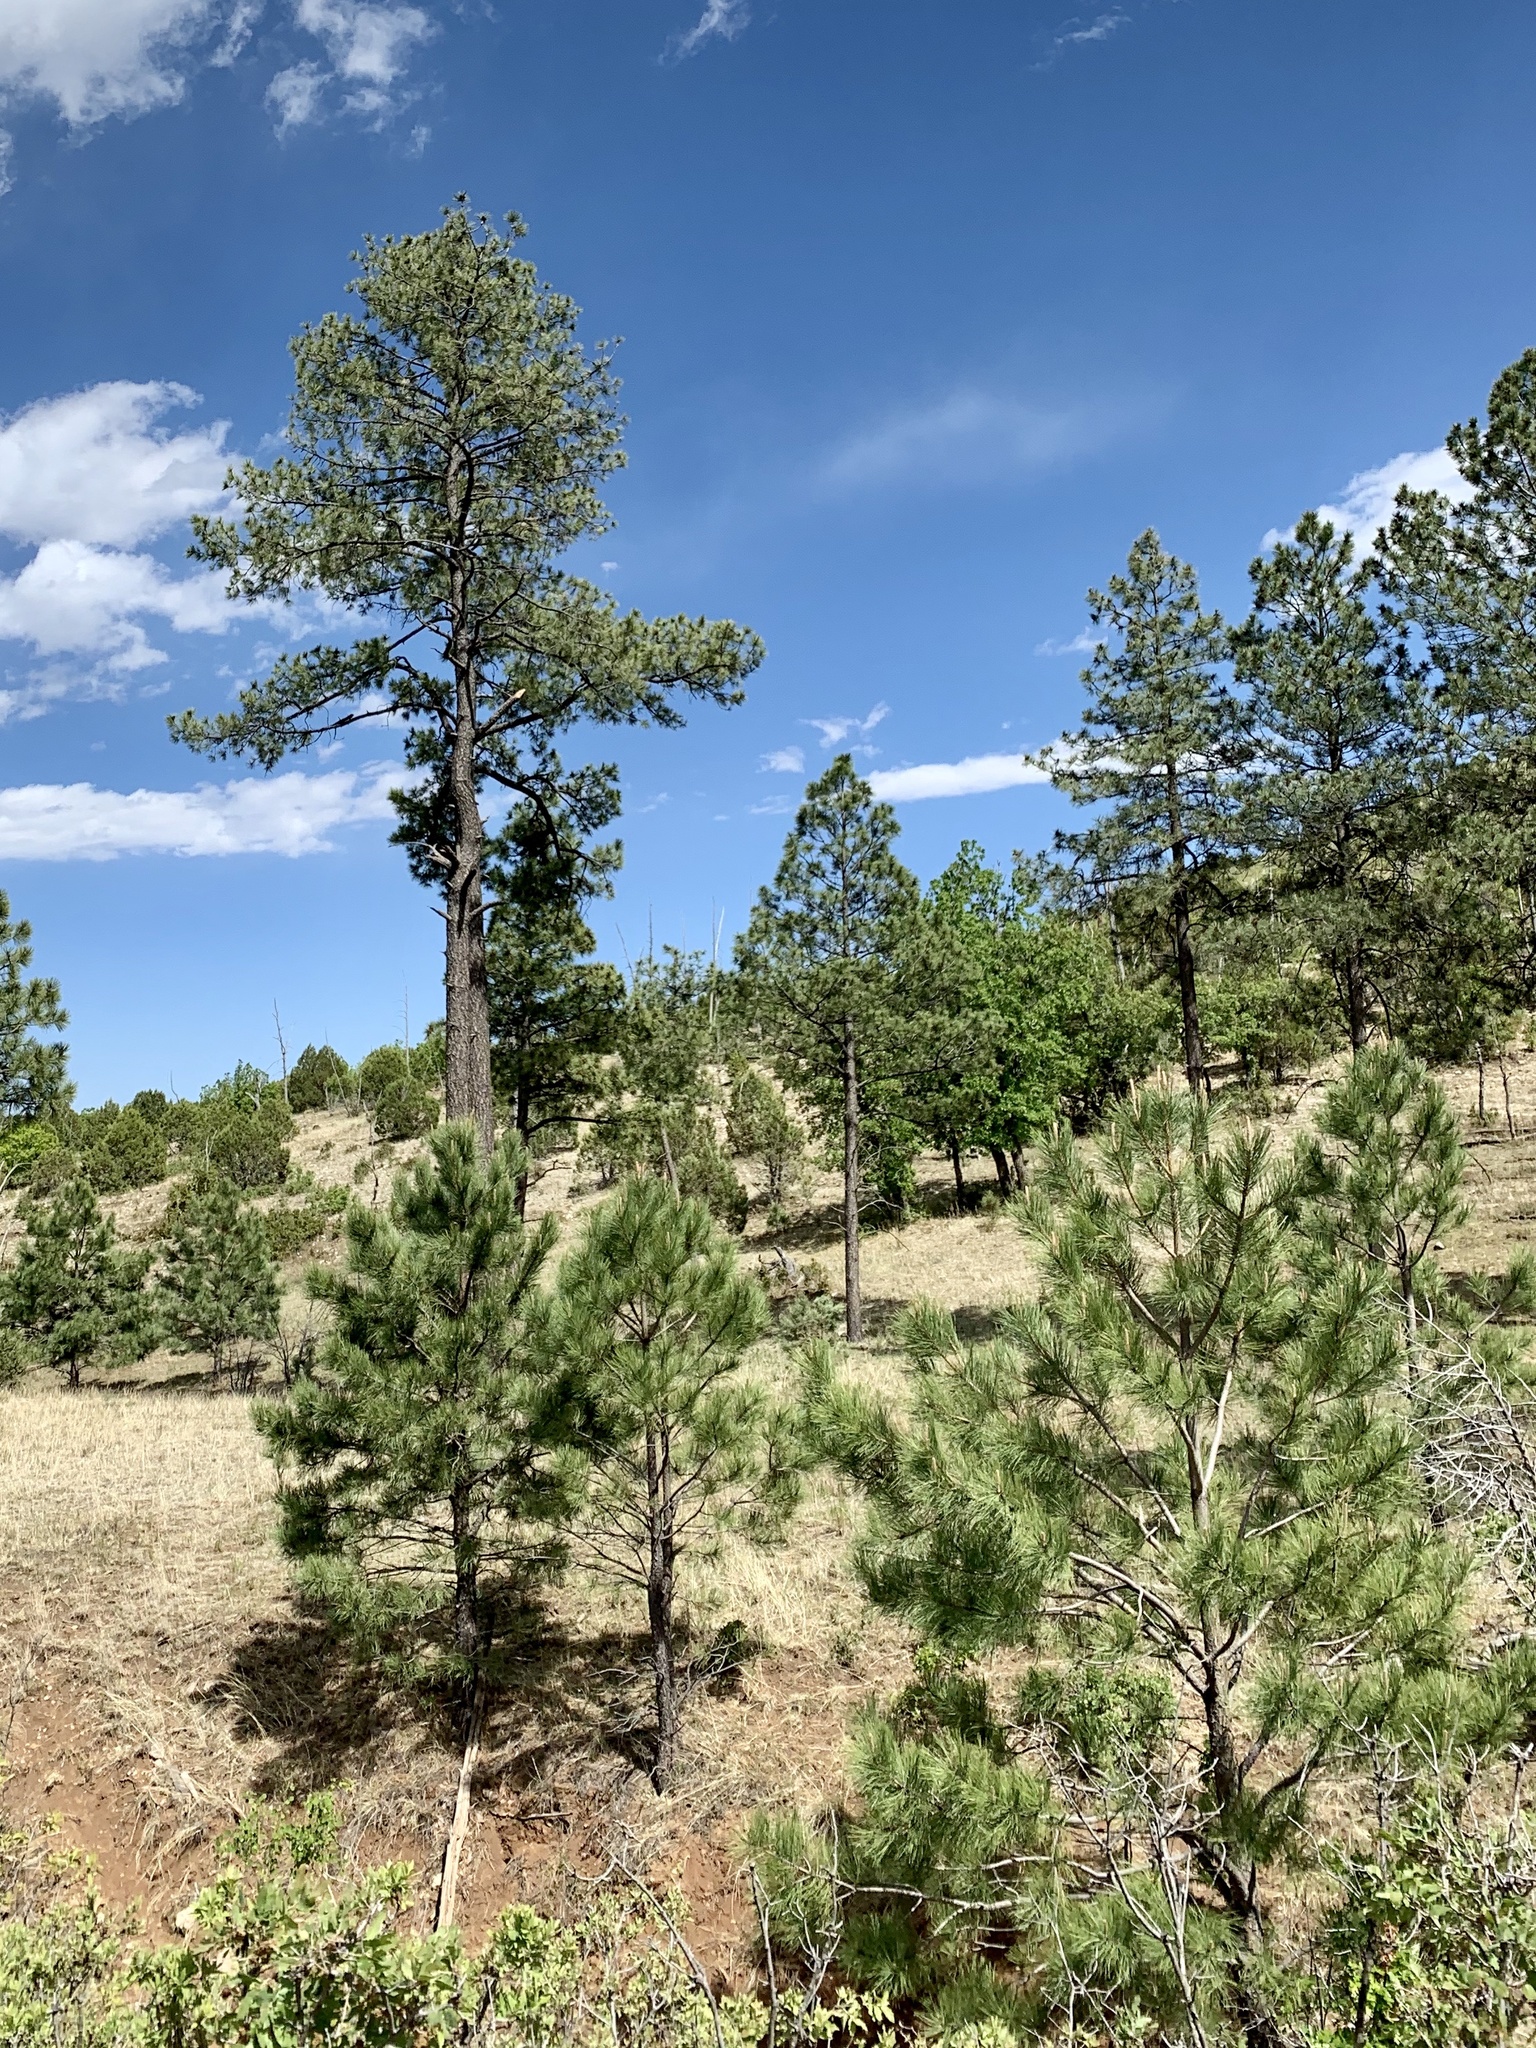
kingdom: Plantae
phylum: Tracheophyta
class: Pinopsida
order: Pinales
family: Pinaceae
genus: Pinus
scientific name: Pinus ponderosa
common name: Western yellow-pine
